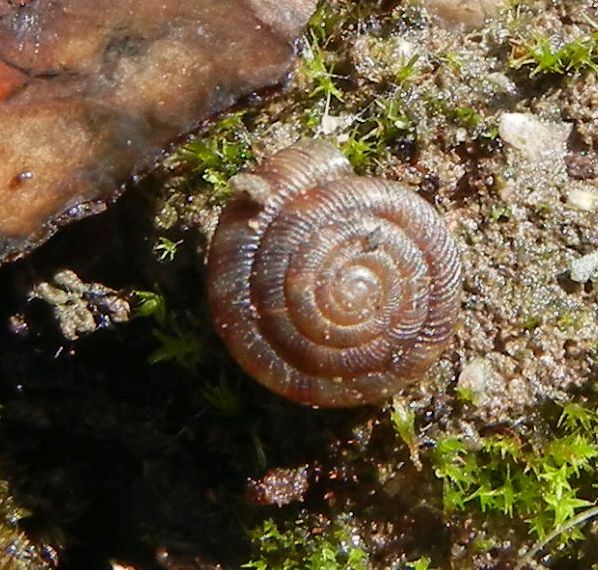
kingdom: Animalia
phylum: Mollusca
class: Gastropoda
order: Stylommatophora
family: Discidae
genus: Discus
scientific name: Discus rotundatus
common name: Rounded snail
